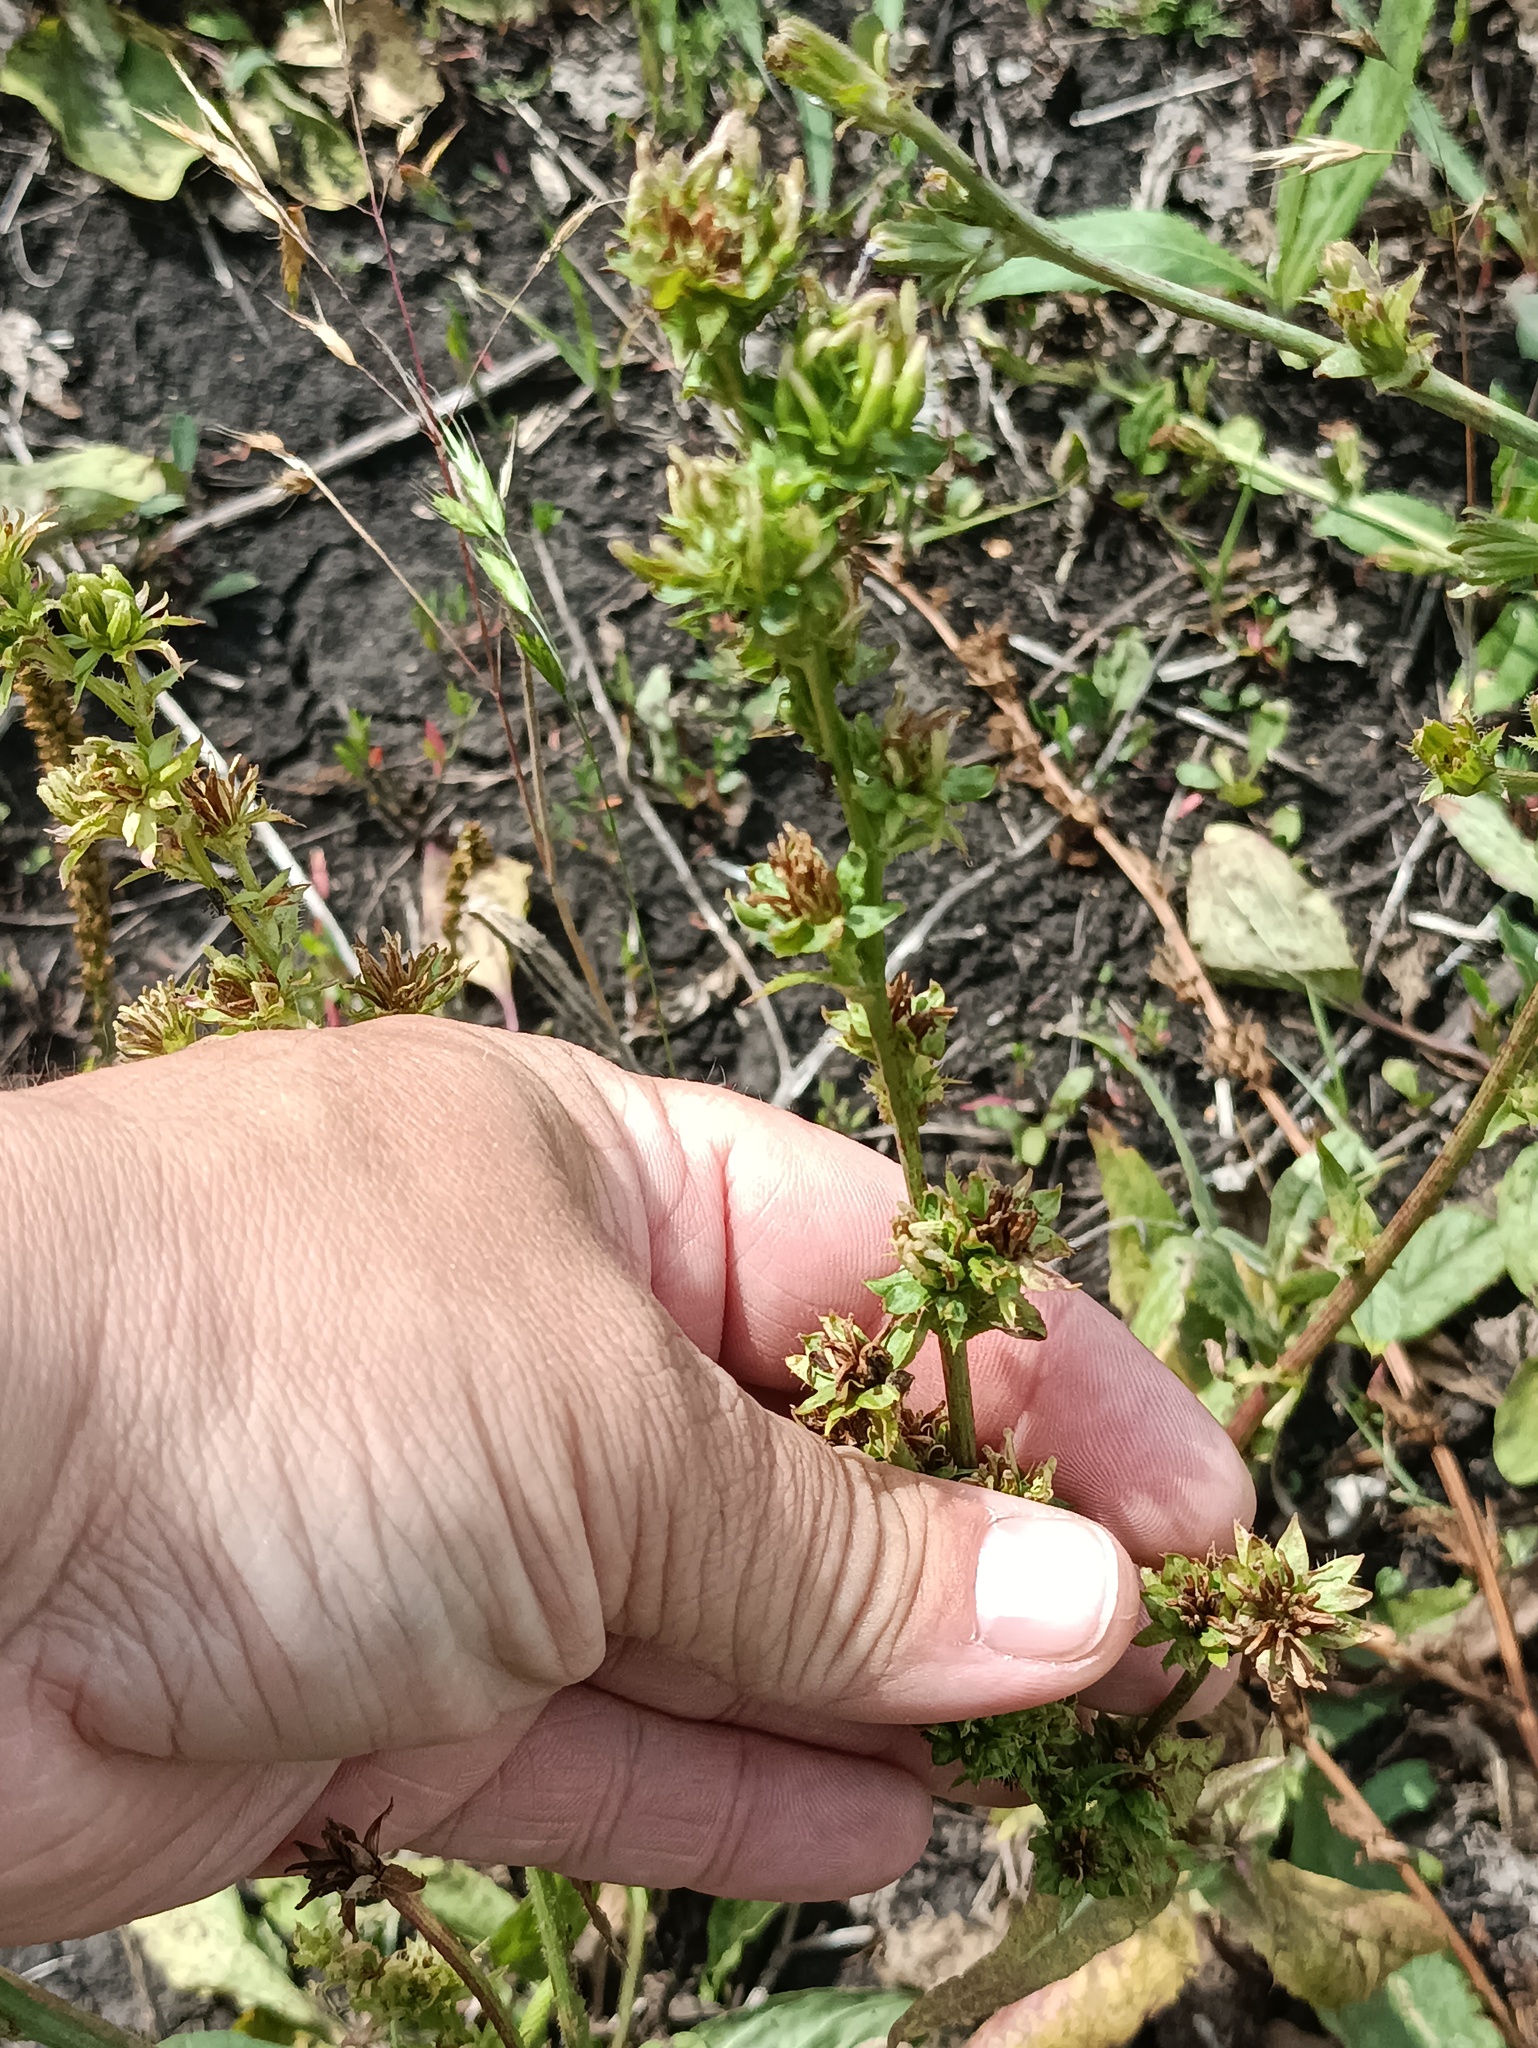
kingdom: Plantae
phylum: Tracheophyta
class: Magnoliopsida
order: Asterales
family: Asteraceae
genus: Cichorium
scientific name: Cichorium intybus
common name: Chicory
